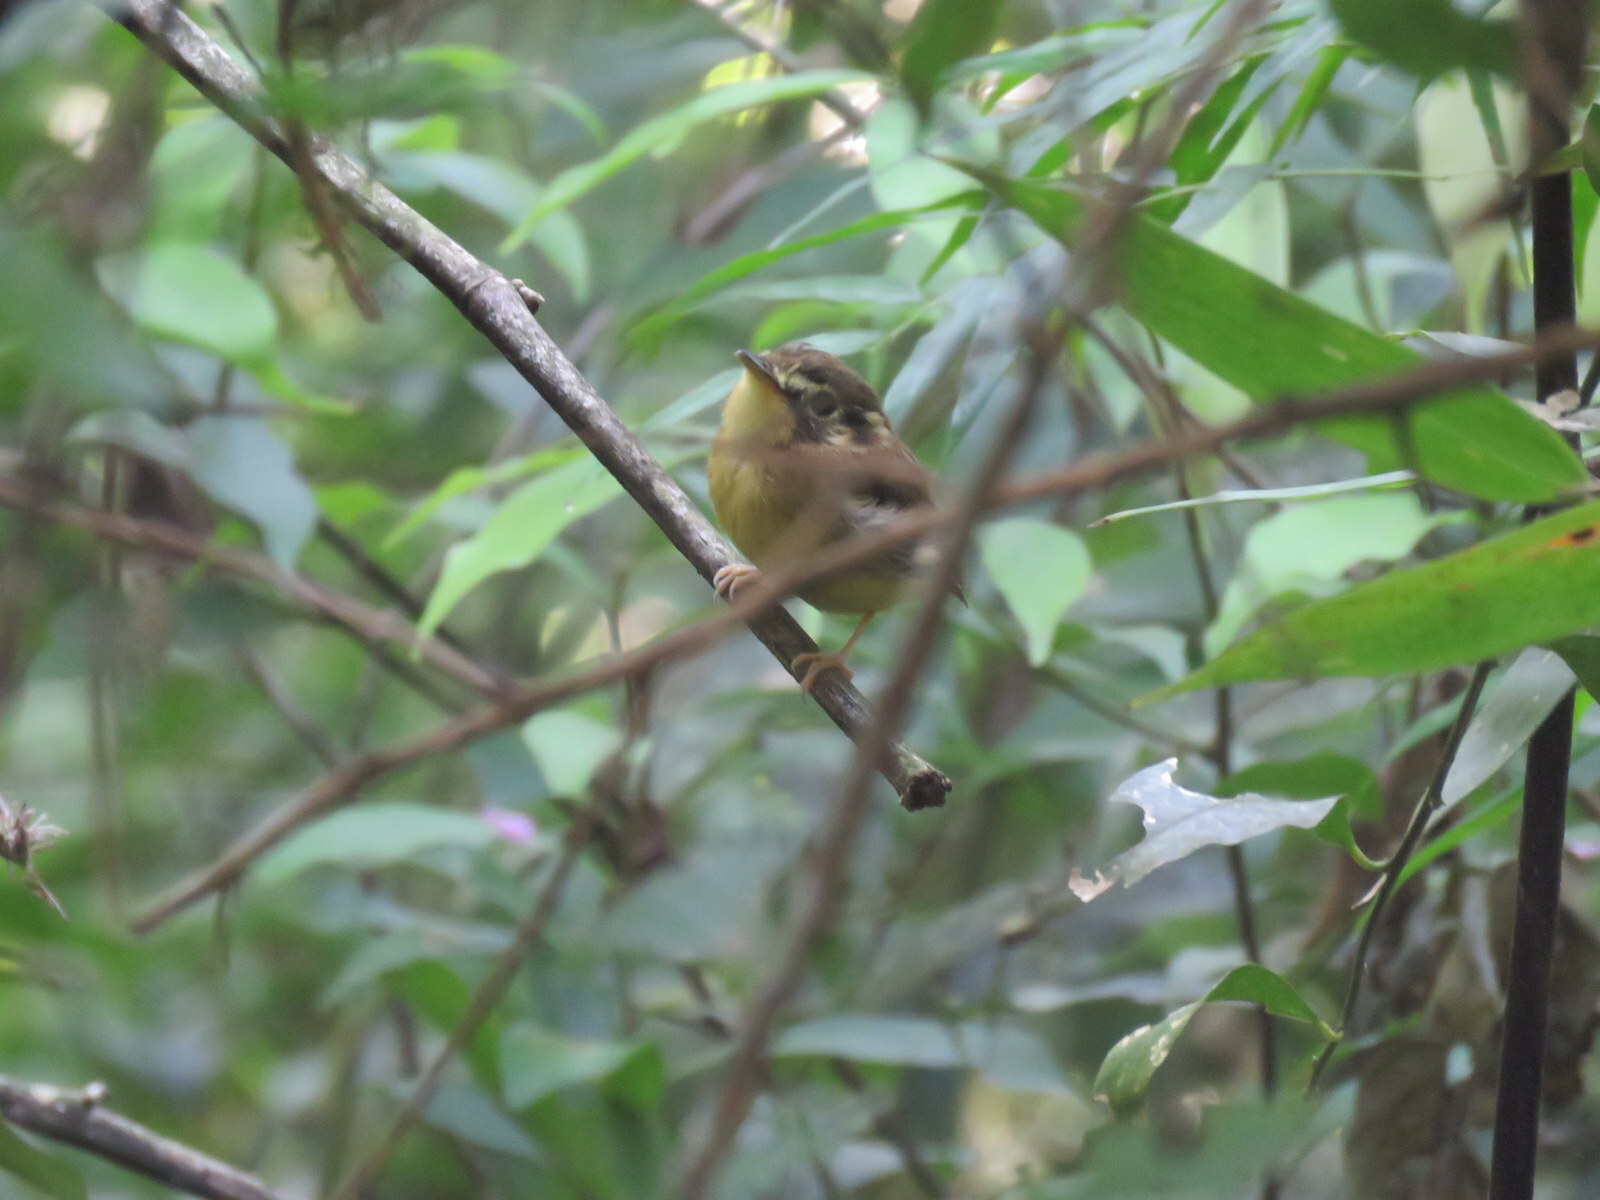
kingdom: Animalia
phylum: Chordata
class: Aves
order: Passeriformes
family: Tyrannidae
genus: Platyrinchus
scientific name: Platyrinchus mystaceus
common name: White-throated spadebill
